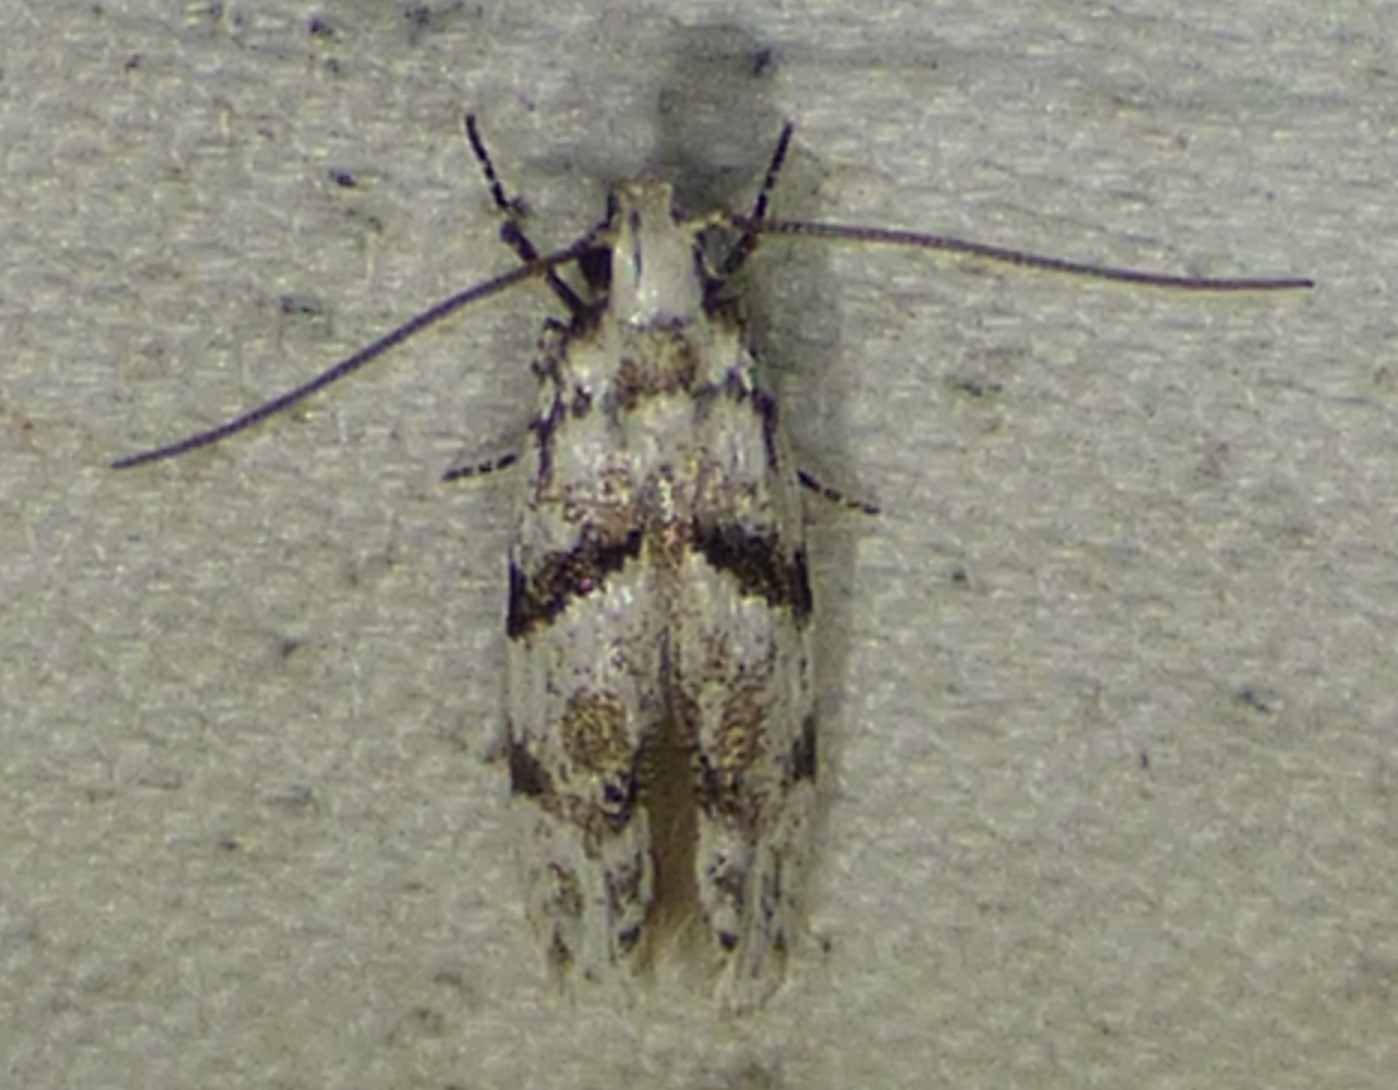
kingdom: Animalia
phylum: Arthropoda
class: Insecta
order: Lepidoptera
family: Gelechiidae
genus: Arogalea
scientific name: Arogalea cristifasciella
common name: White stripe-backed moth
